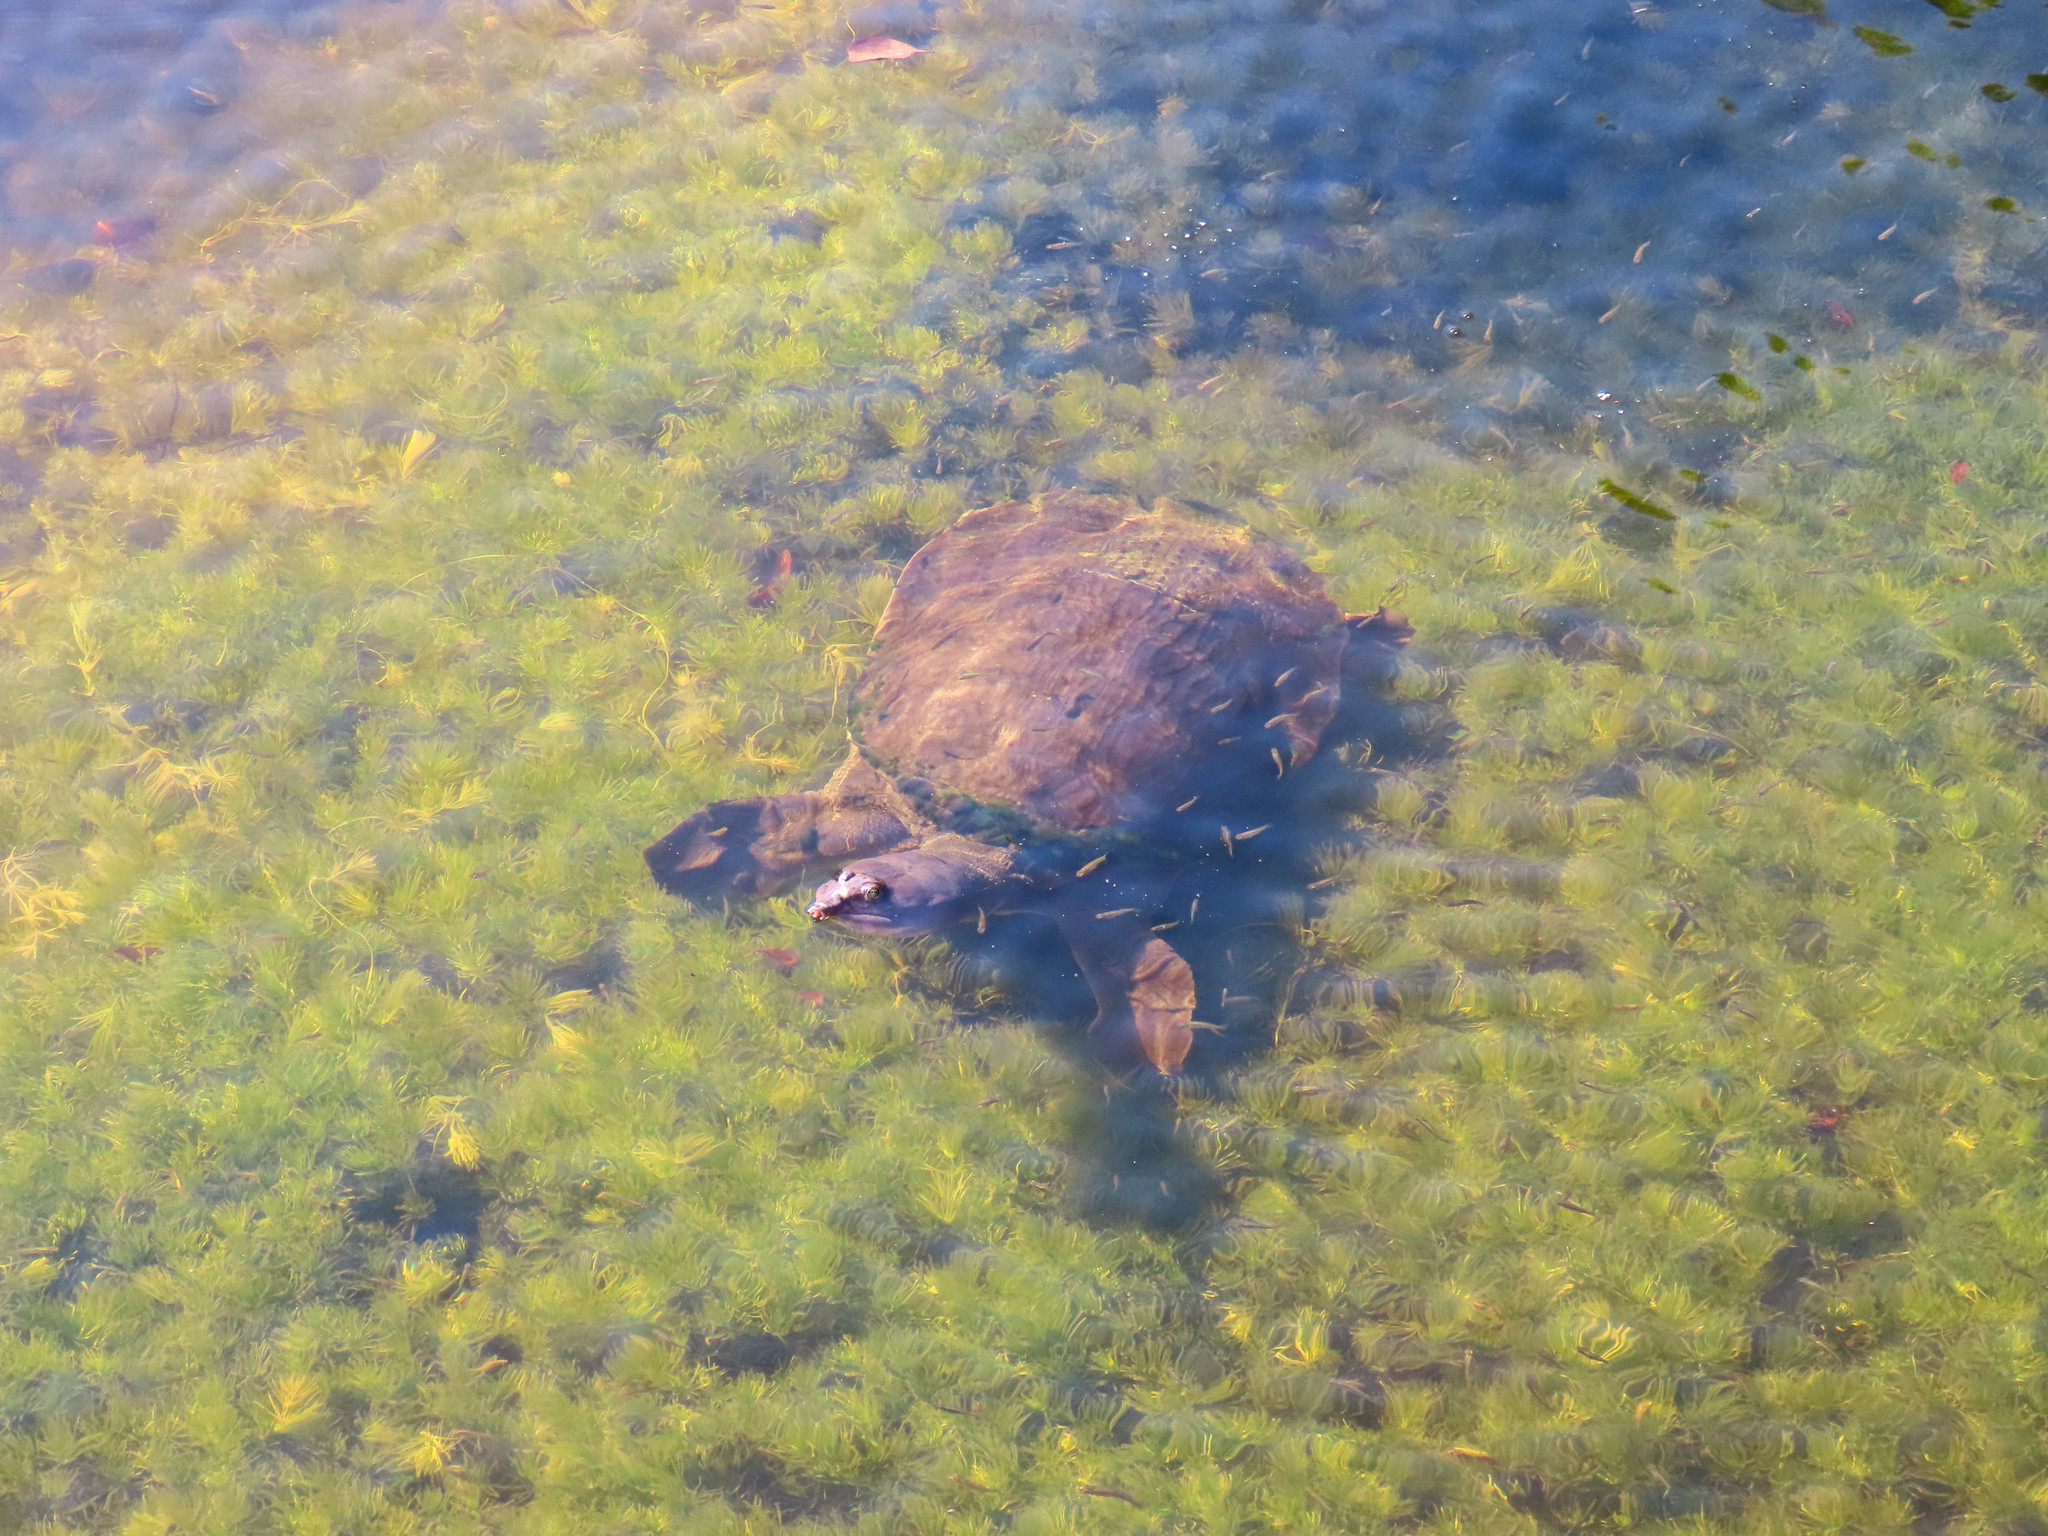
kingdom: Animalia
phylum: Chordata
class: Testudines
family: Trionychidae
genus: Apalone
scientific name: Apalone ferox
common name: Florida softshell turtle
